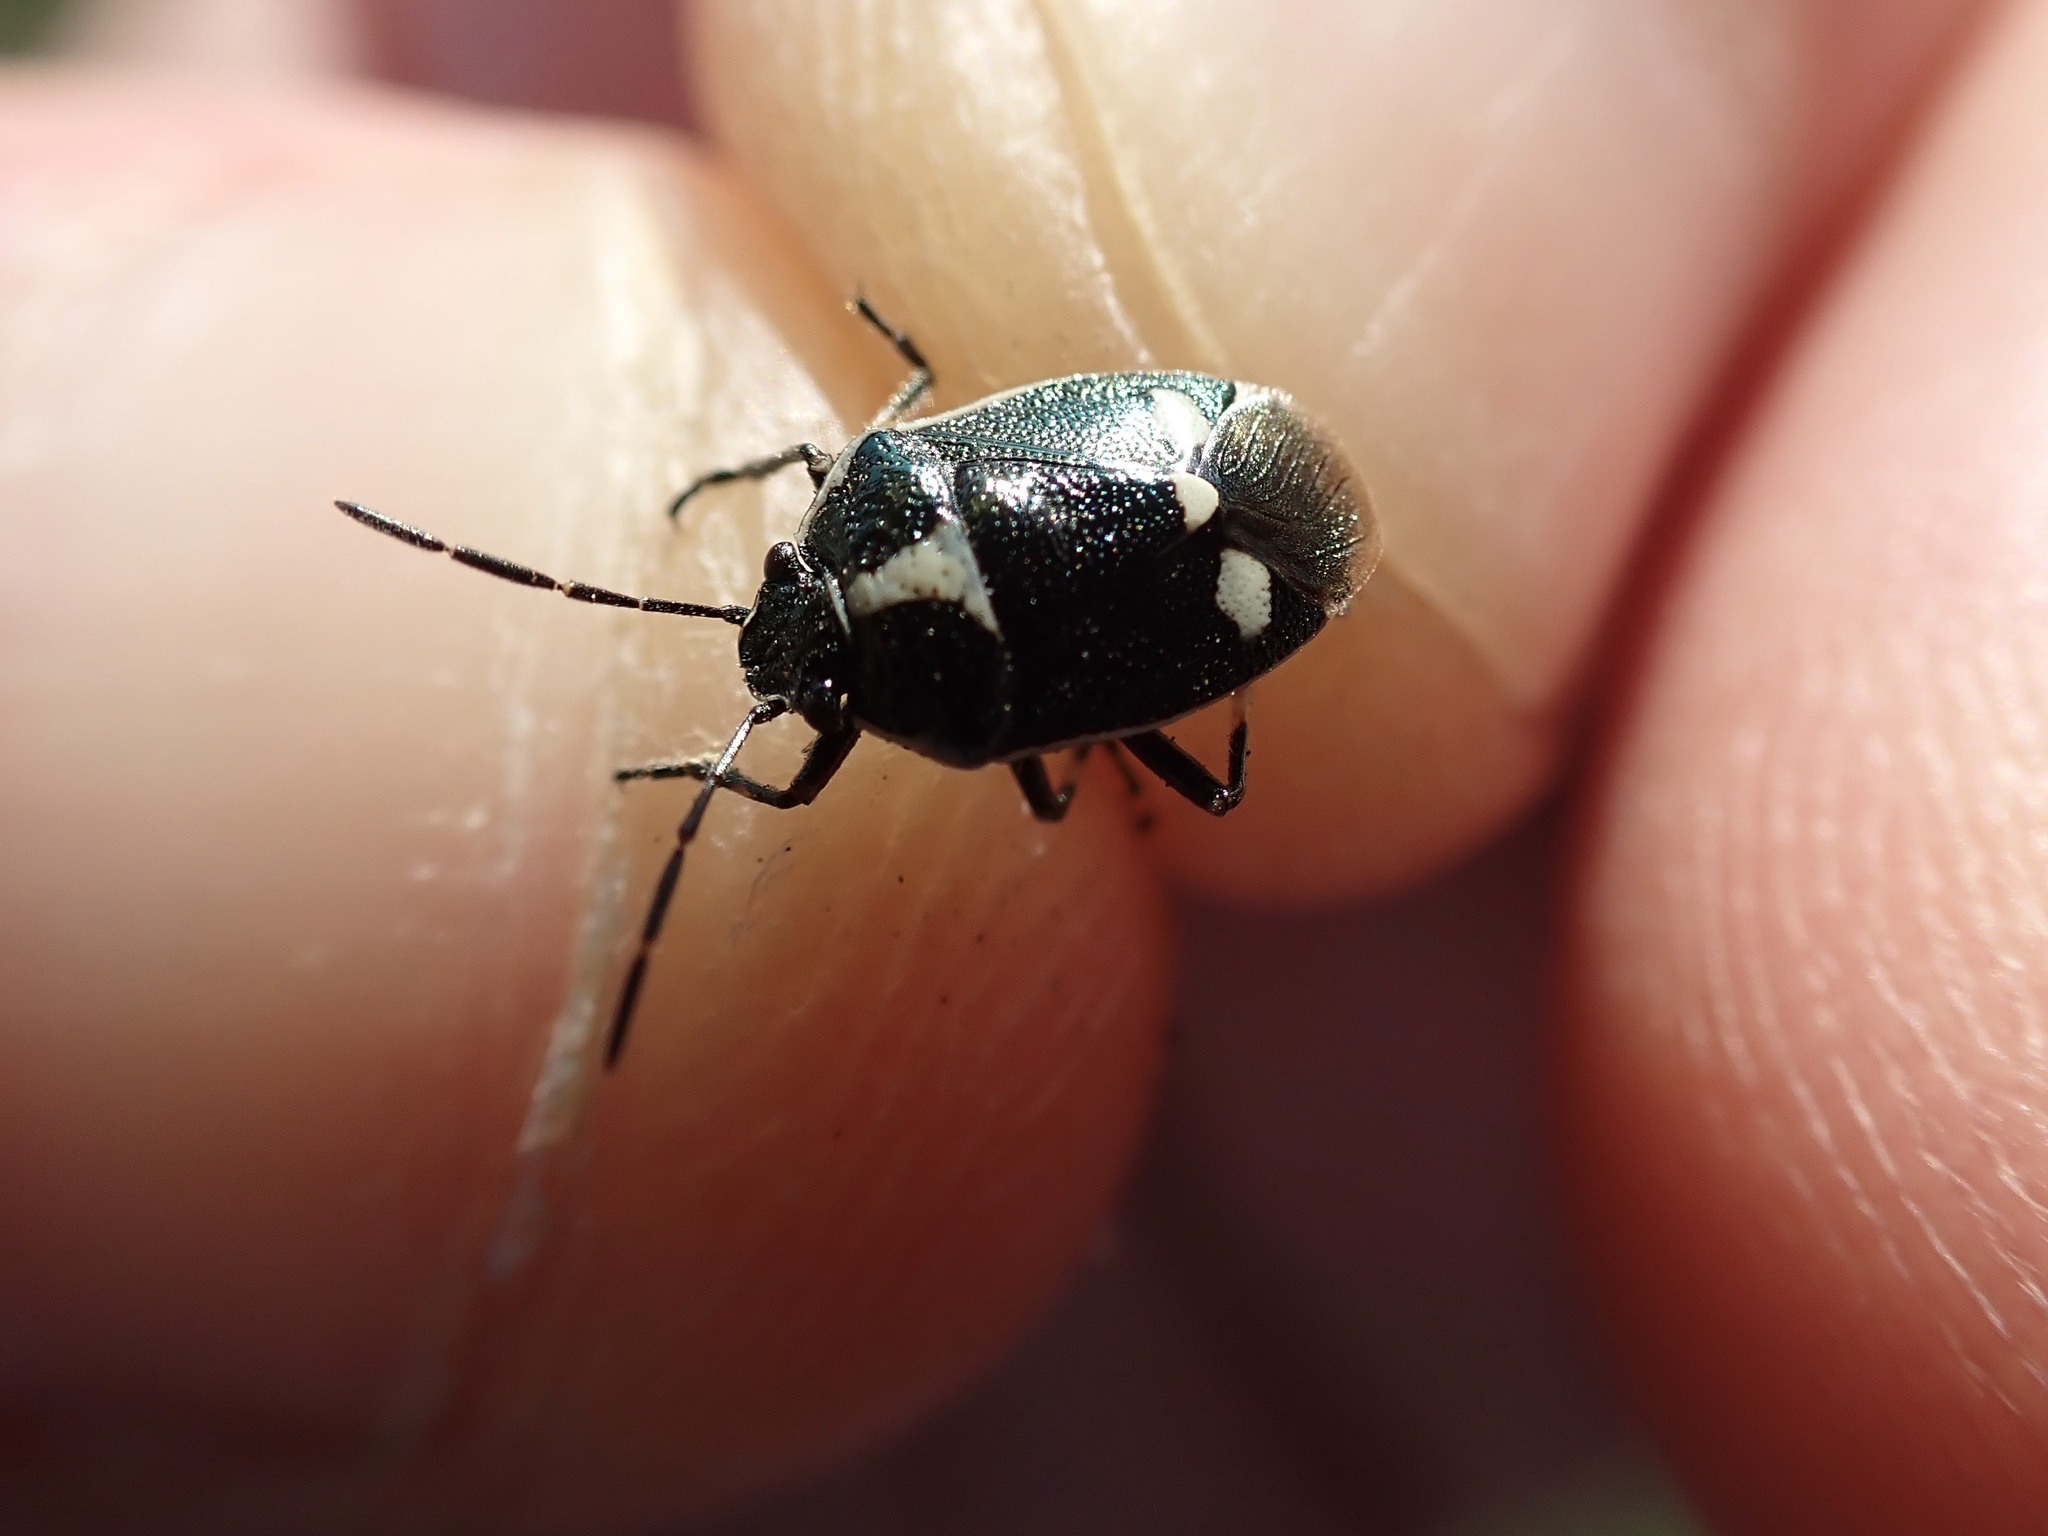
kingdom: Animalia
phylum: Arthropoda
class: Insecta
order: Hemiptera
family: Pentatomidae
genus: Eurydema
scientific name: Eurydema oleracea
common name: Cabbage bug
